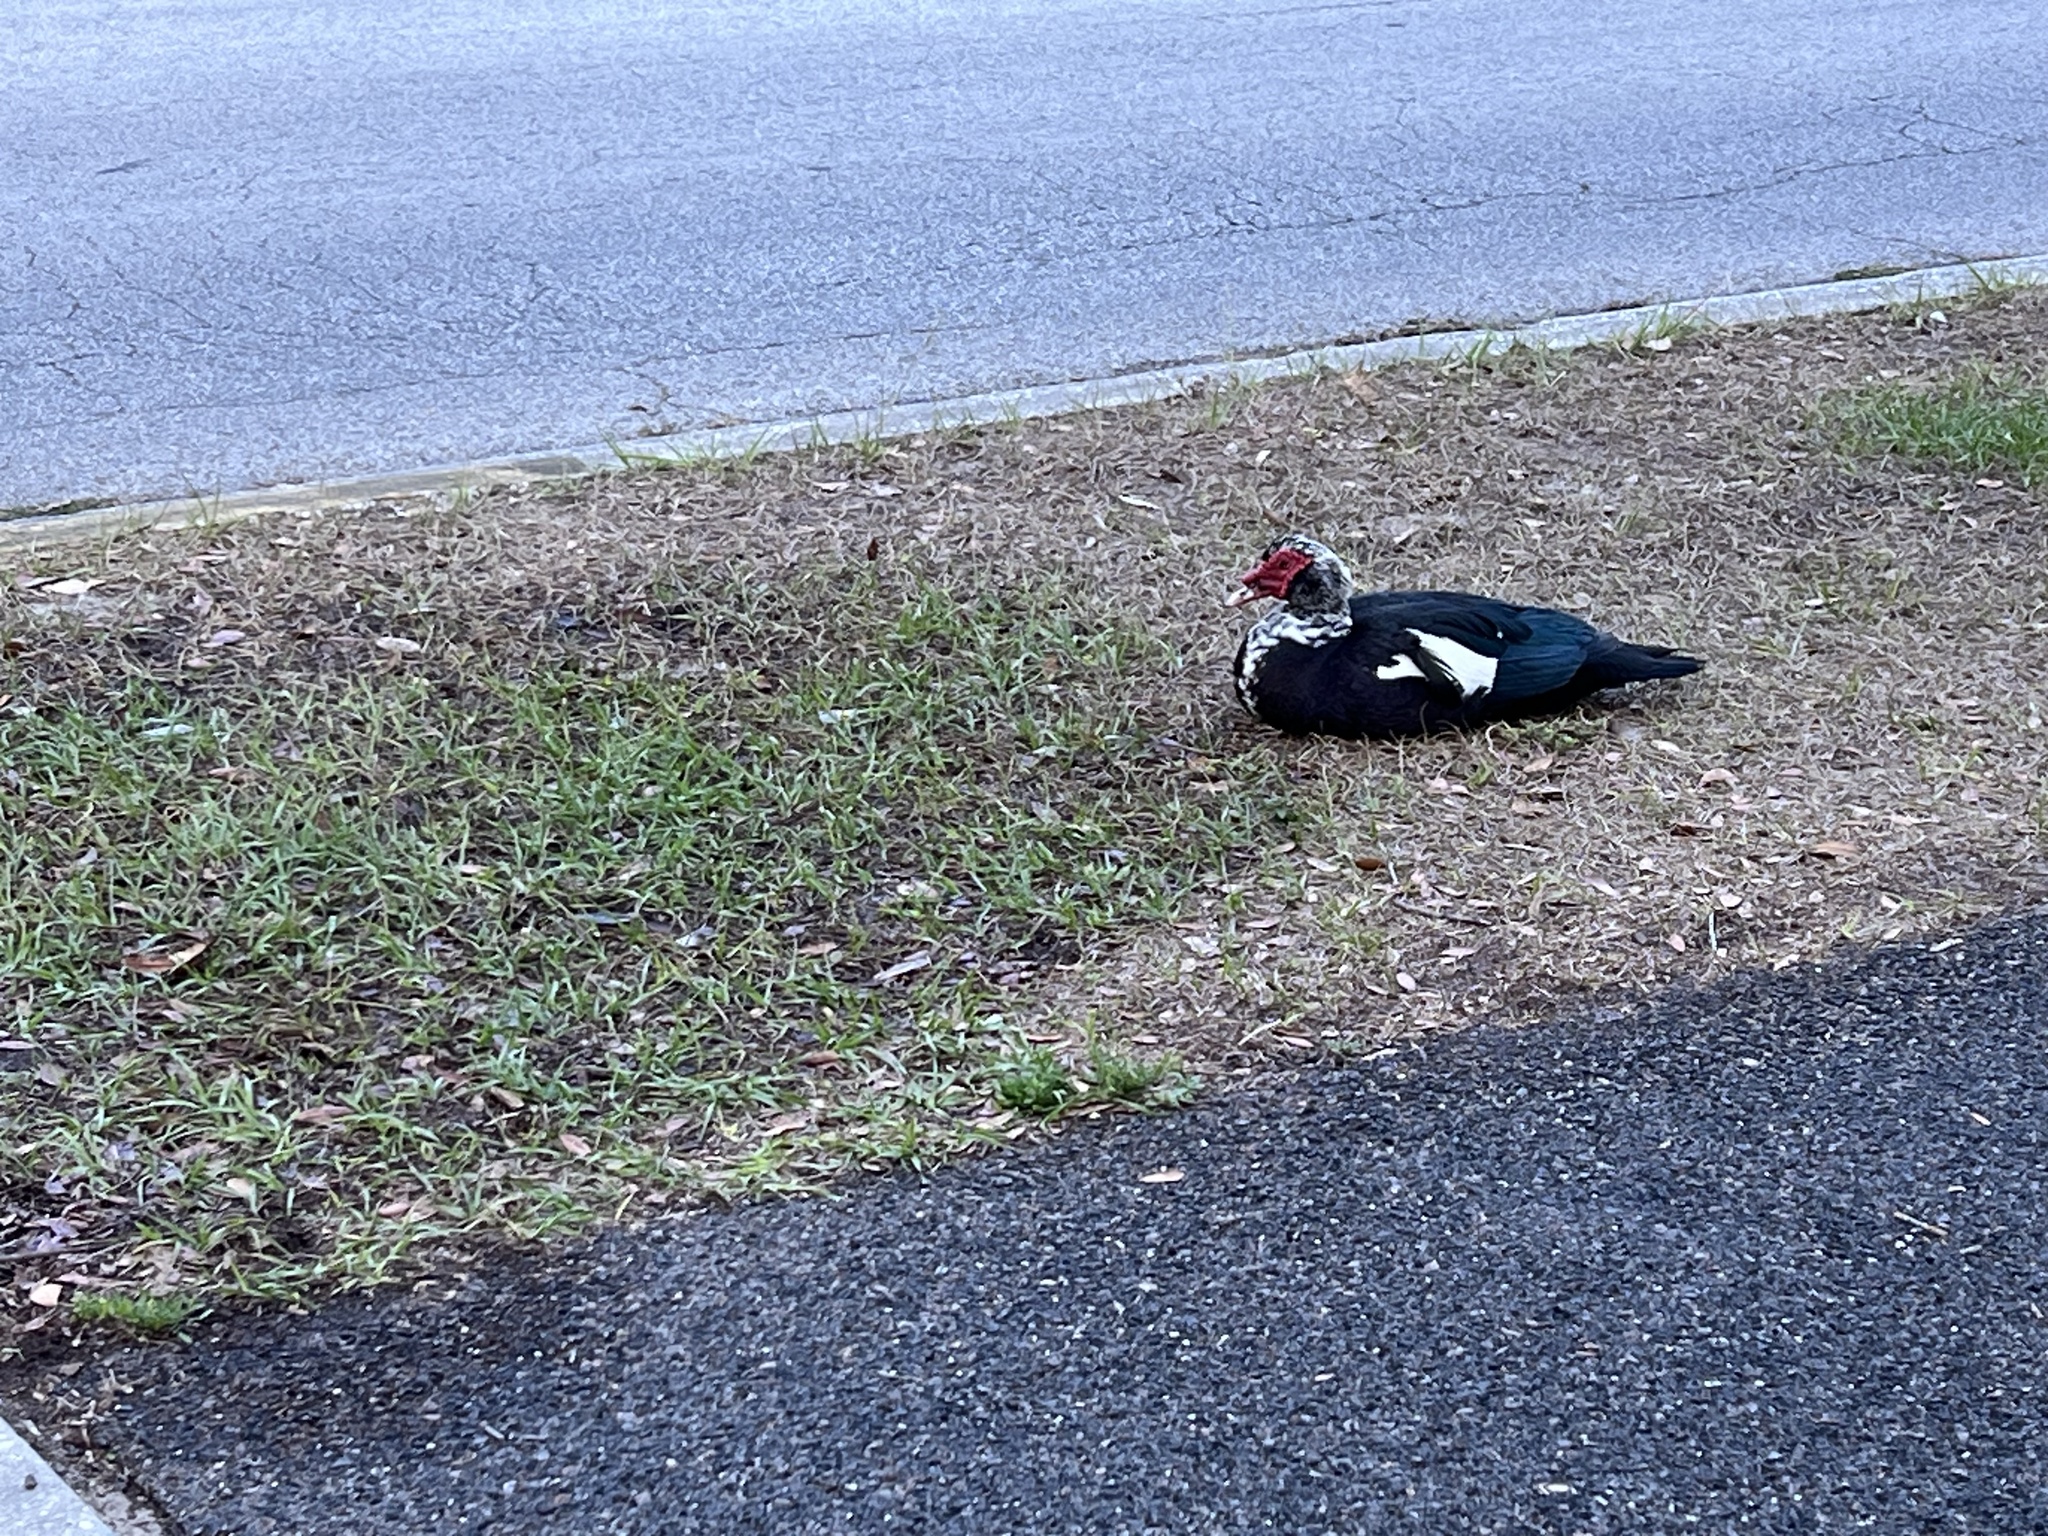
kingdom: Animalia
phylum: Chordata
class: Aves
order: Anseriformes
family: Anatidae
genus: Cairina
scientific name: Cairina moschata
